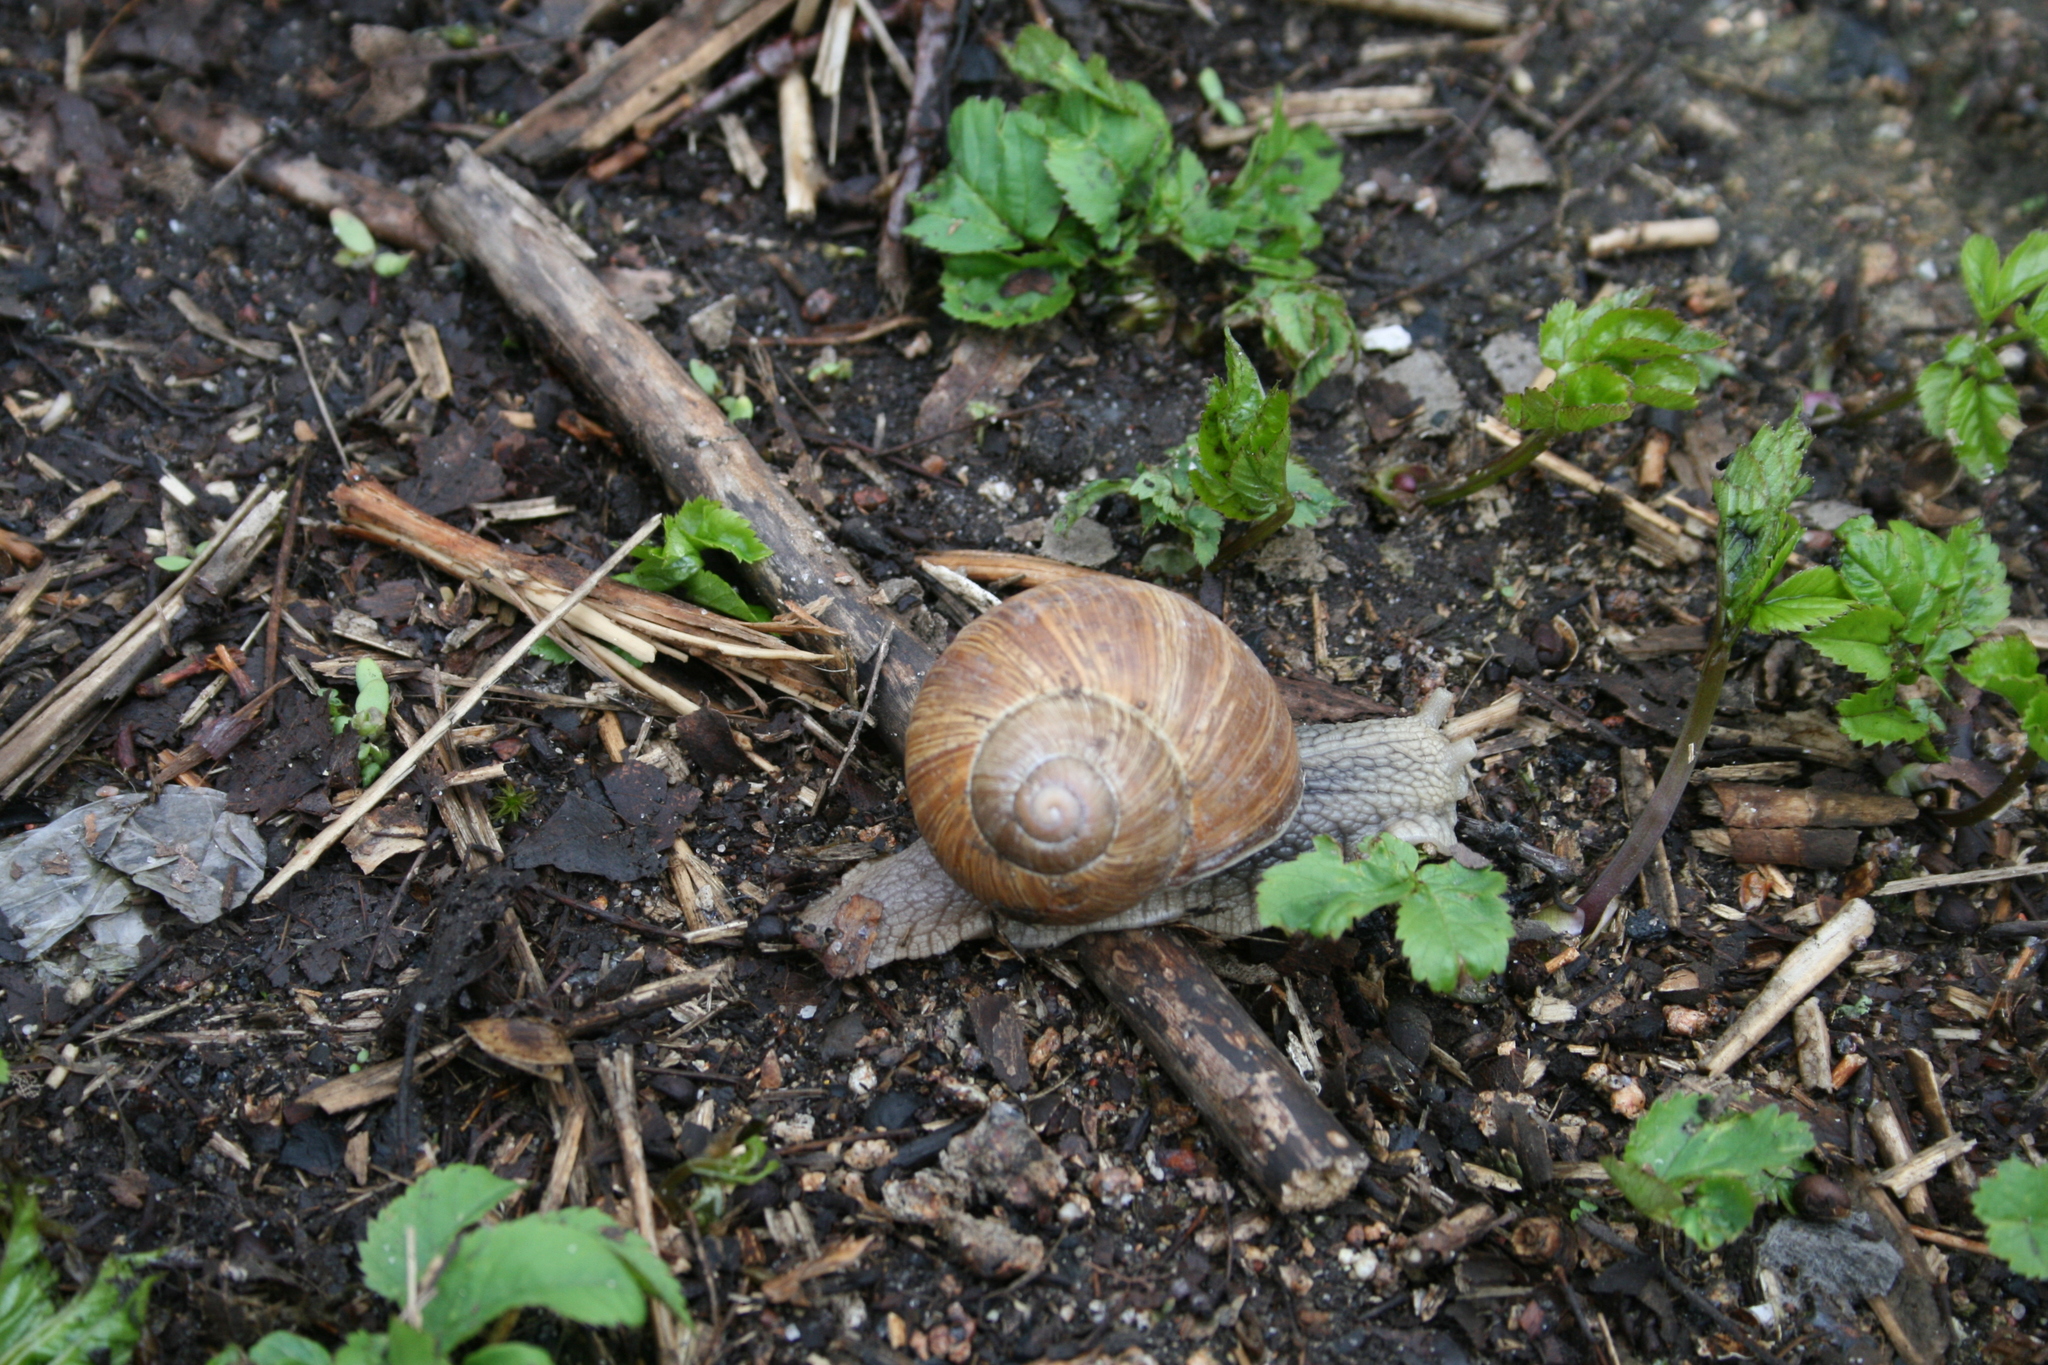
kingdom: Animalia
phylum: Mollusca
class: Gastropoda
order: Stylommatophora
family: Helicidae
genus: Helix
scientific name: Helix pomatia
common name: Roman snail
